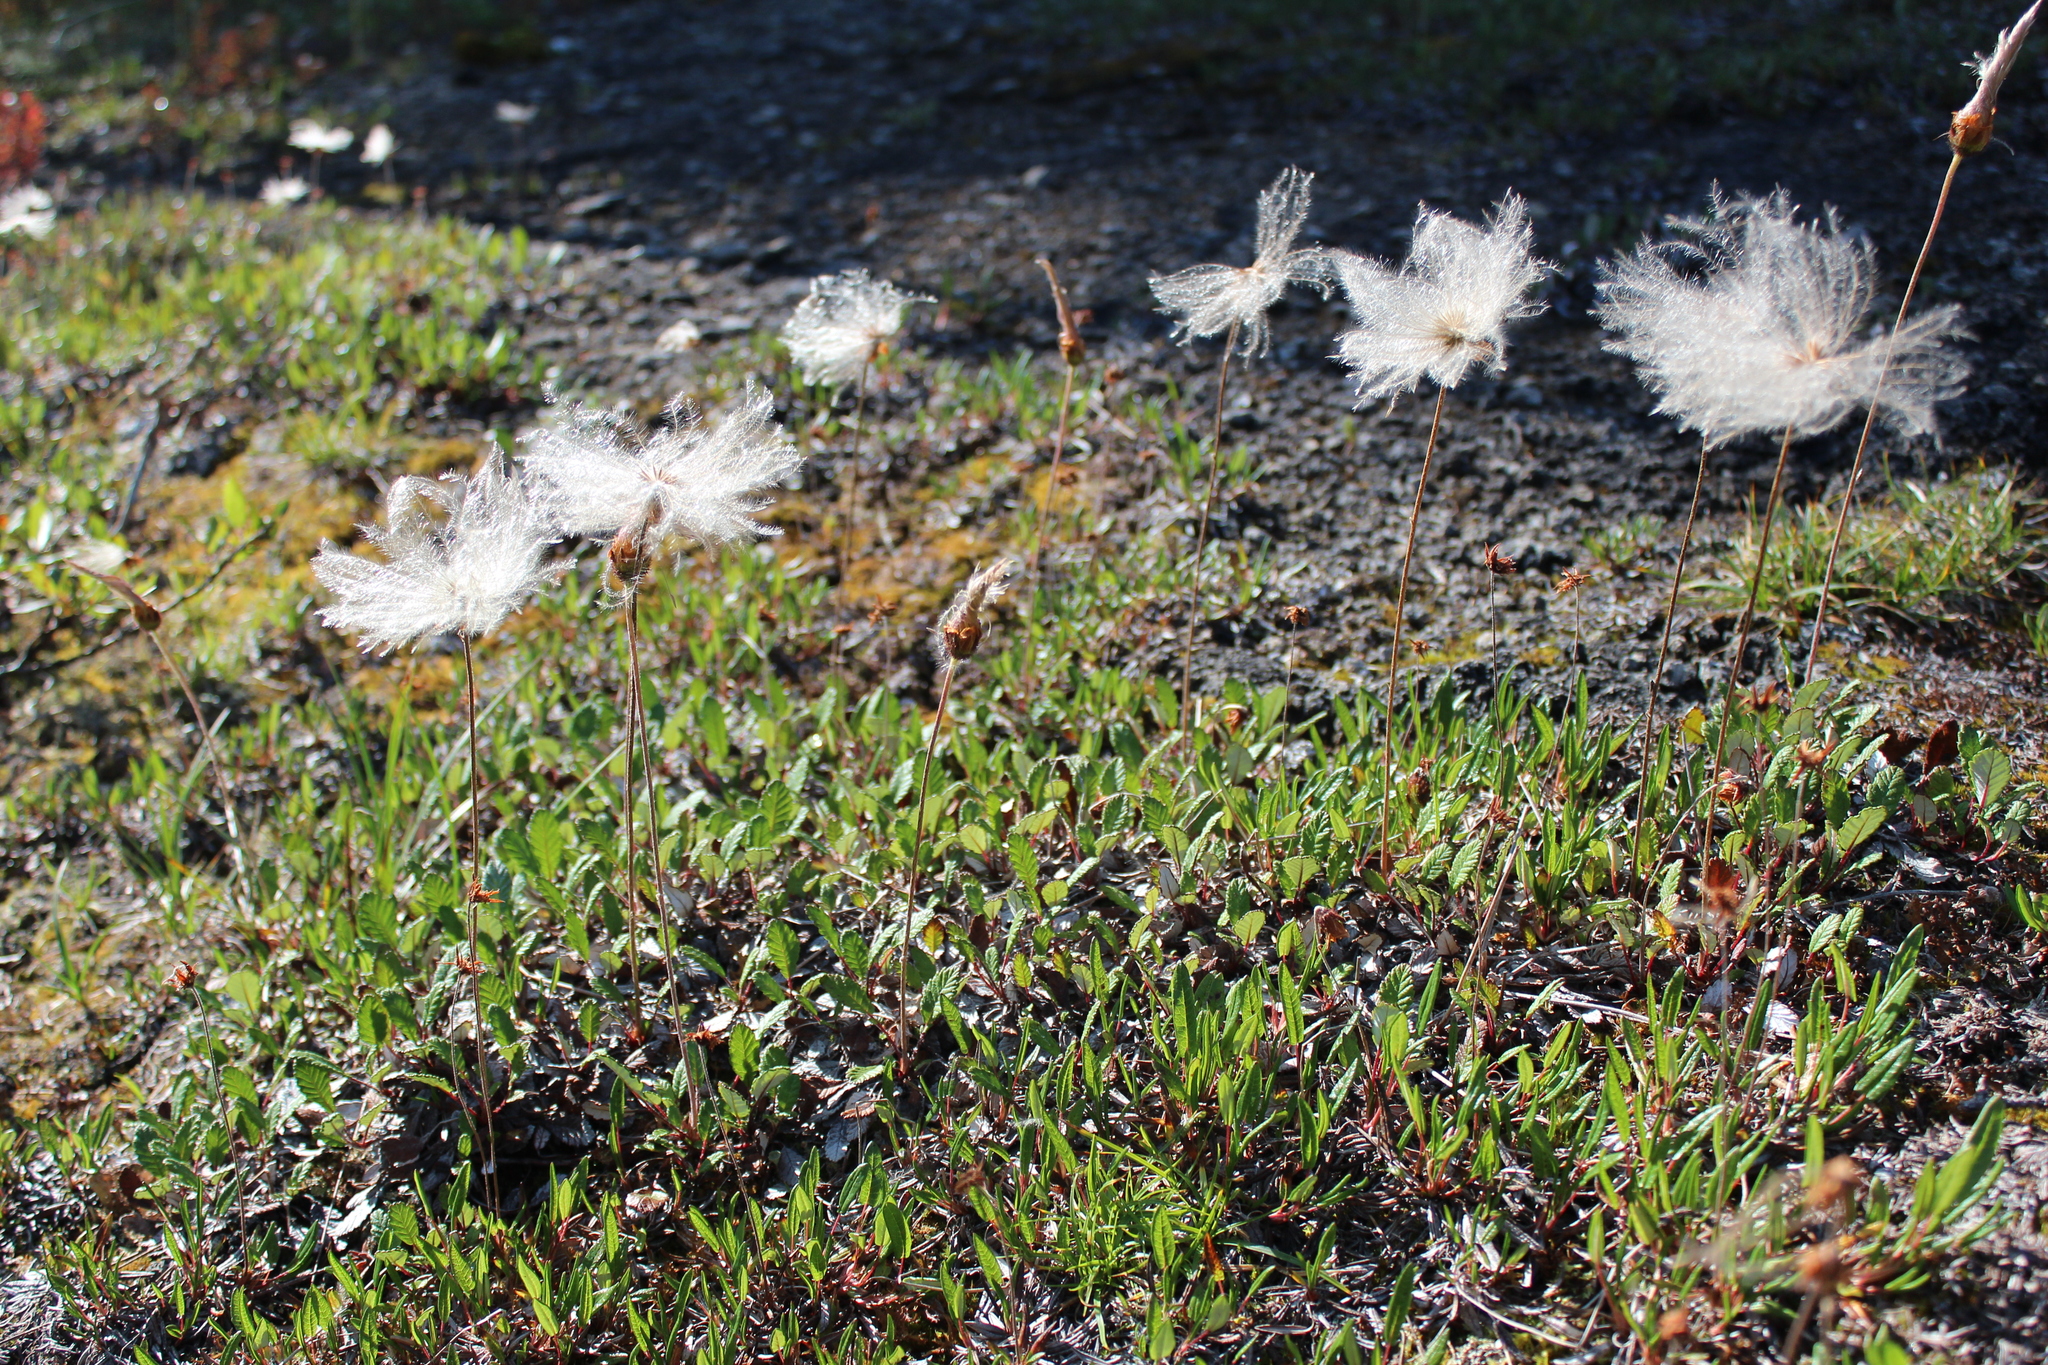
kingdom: Plantae
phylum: Tracheophyta
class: Magnoliopsida
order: Rosales
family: Rosaceae
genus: Dryas
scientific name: Dryas drummondii
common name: Drummond's dryad
